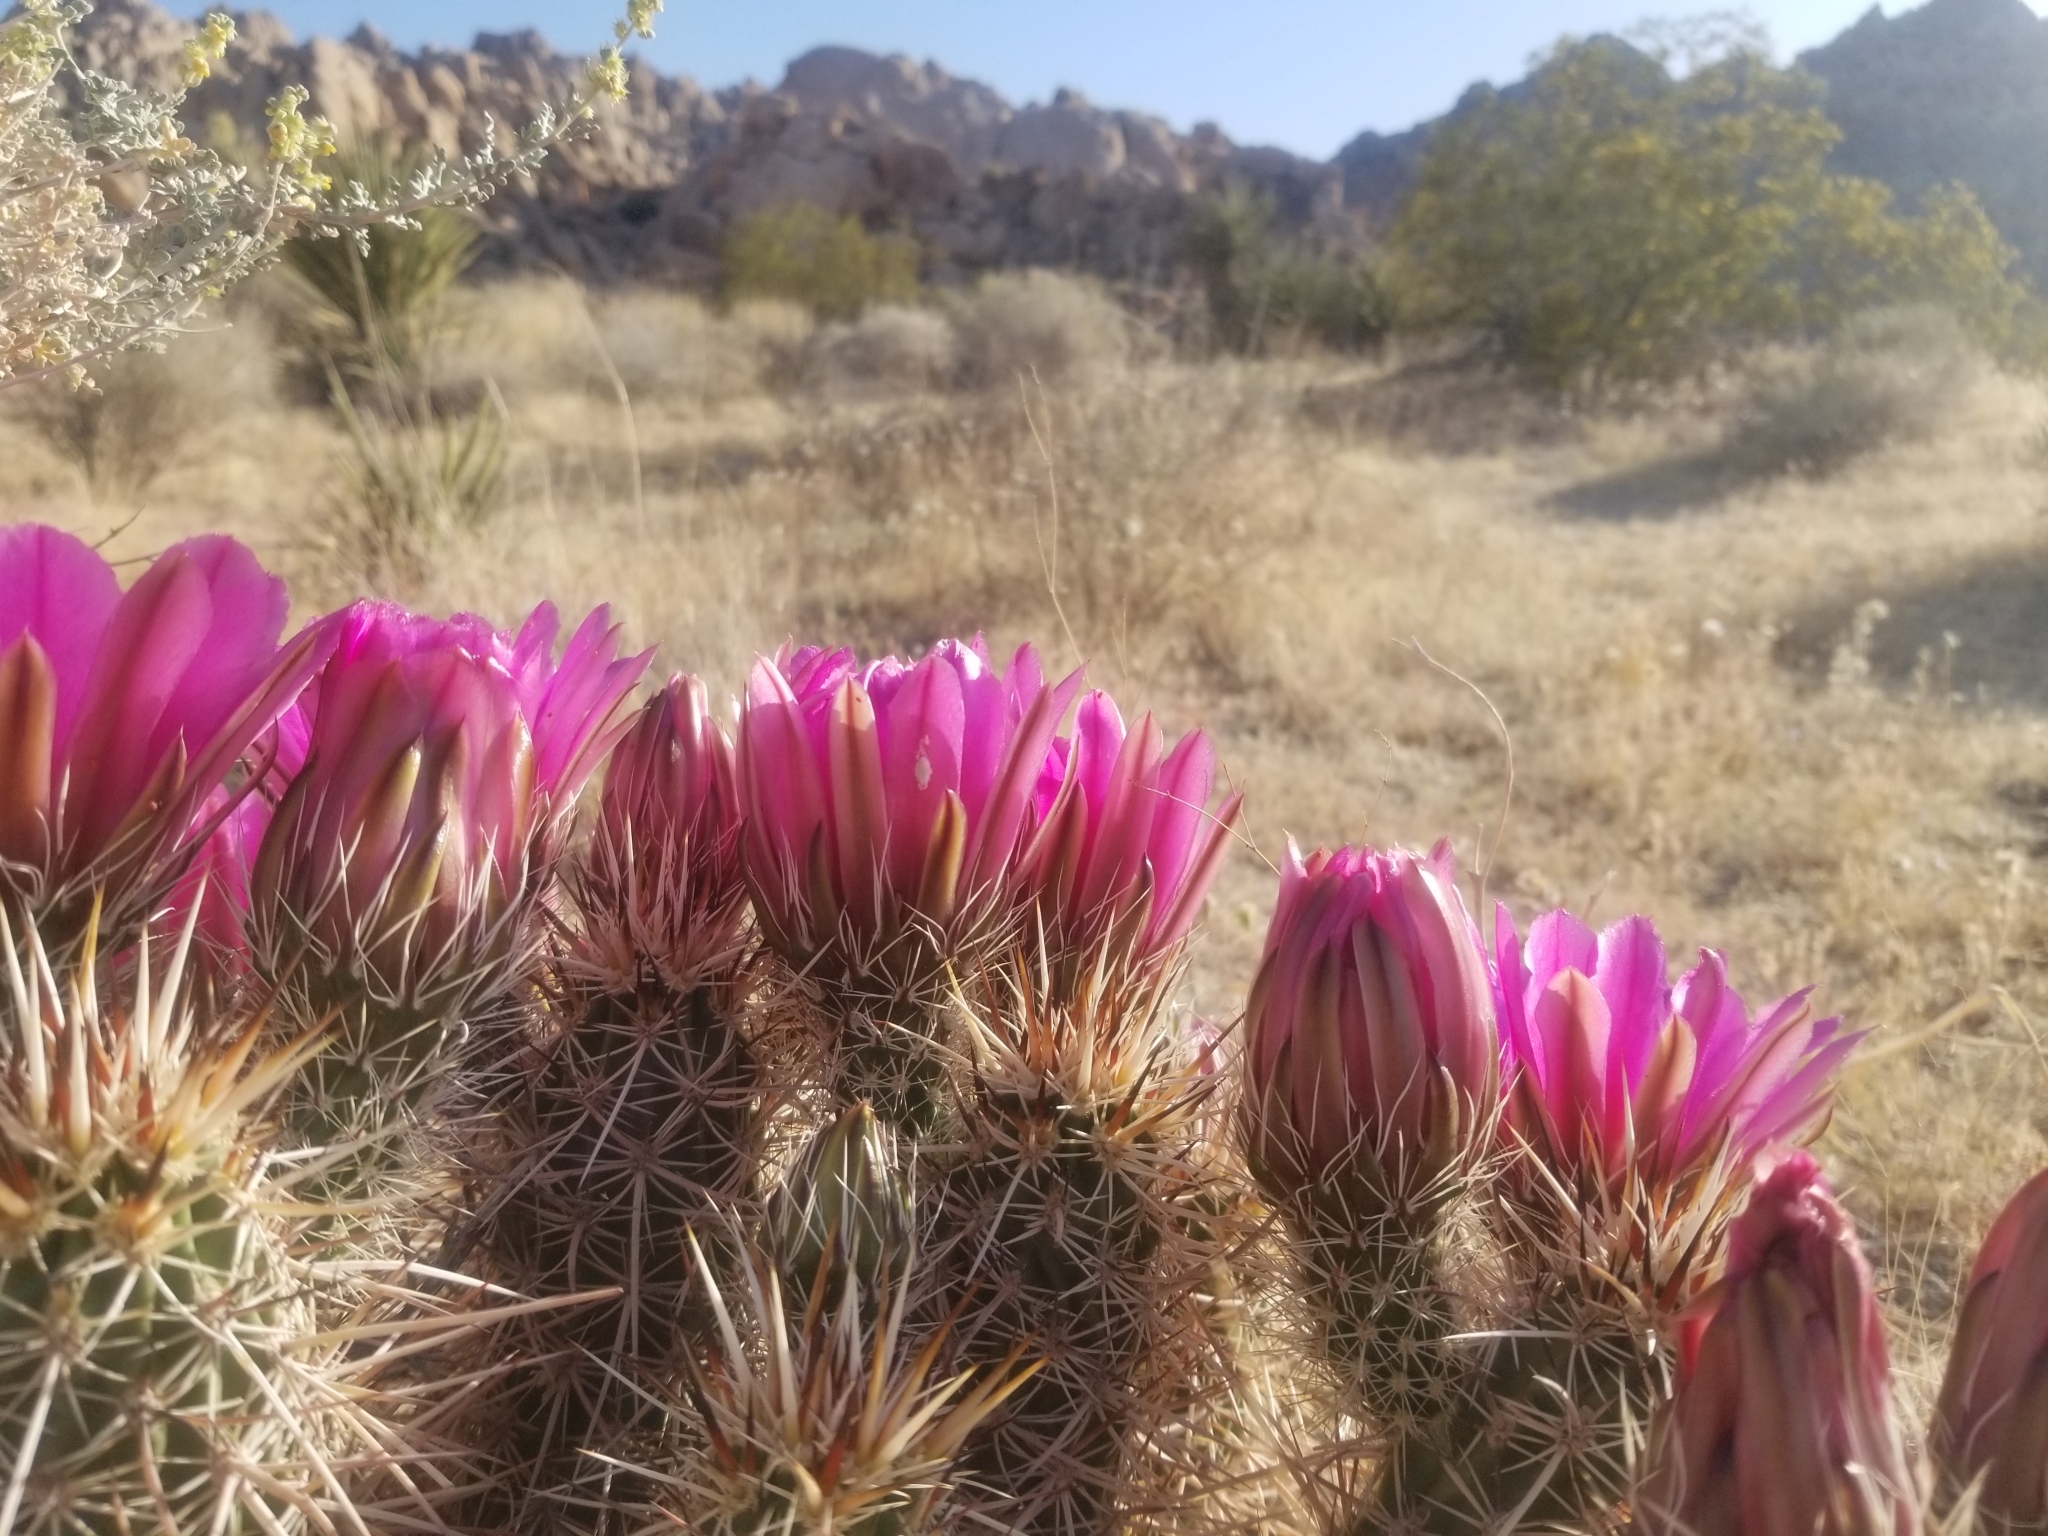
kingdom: Plantae
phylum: Tracheophyta
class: Magnoliopsida
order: Caryophyllales
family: Cactaceae
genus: Echinocereus
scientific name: Echinocereus engelmannii
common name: Engelmann's hedgehog cactus
